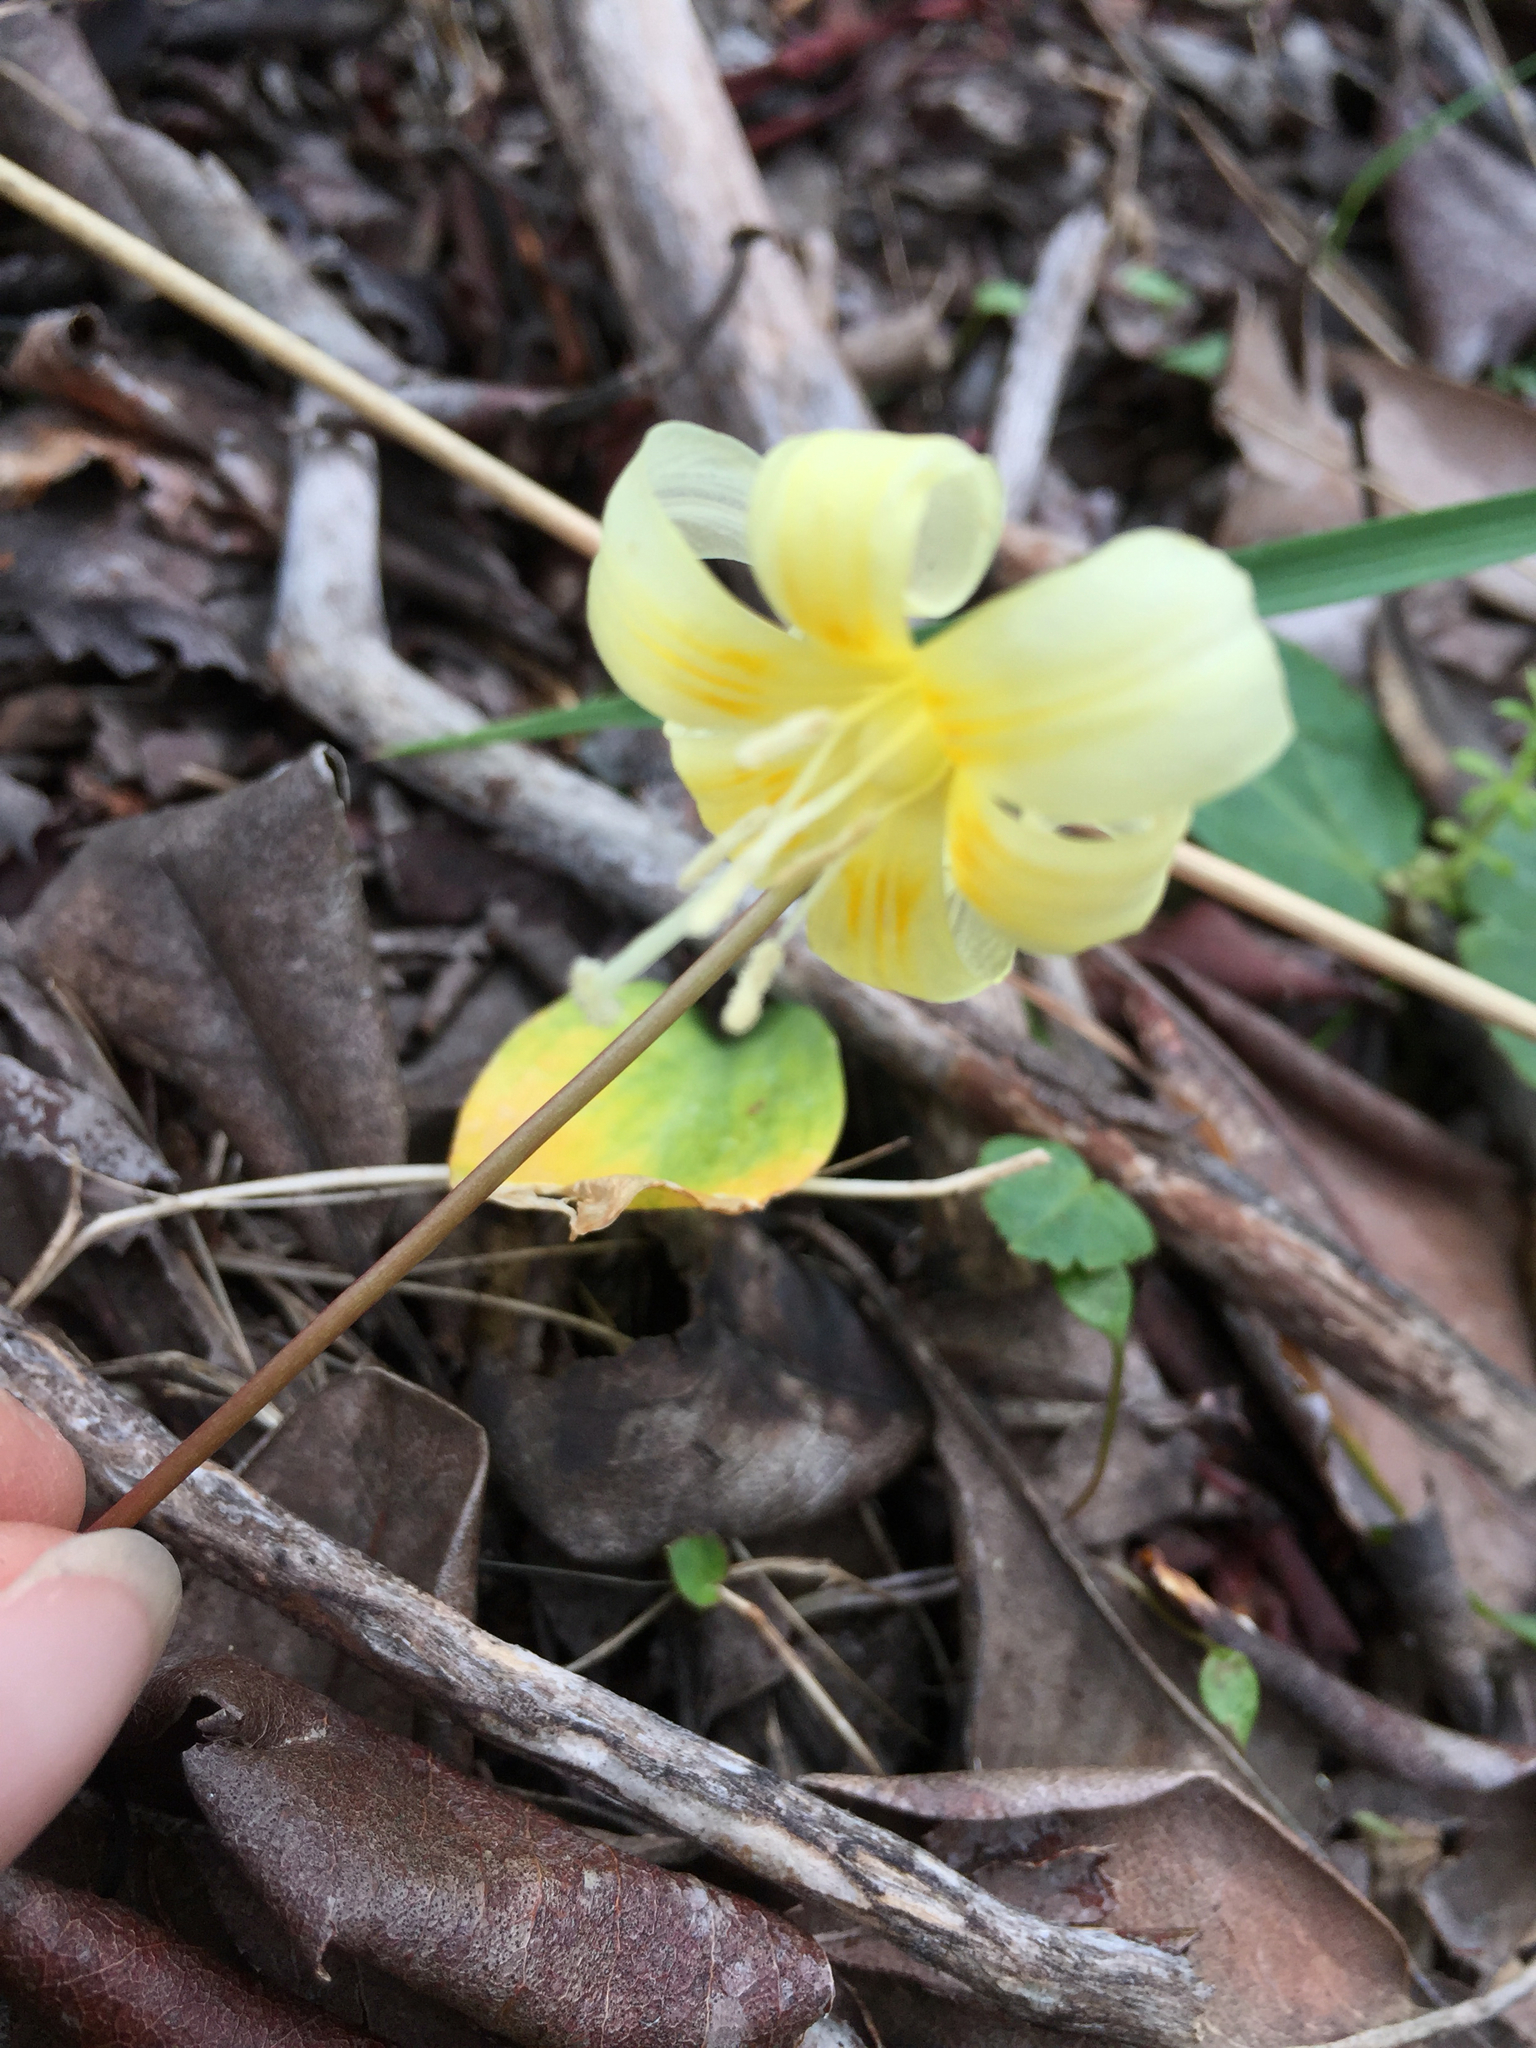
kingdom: Plantae
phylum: Tracheophyta
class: Liliopsida
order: Liliales
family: Liliaceae
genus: Erythronium
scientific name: Erythronium californicum
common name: Fawn-lily
